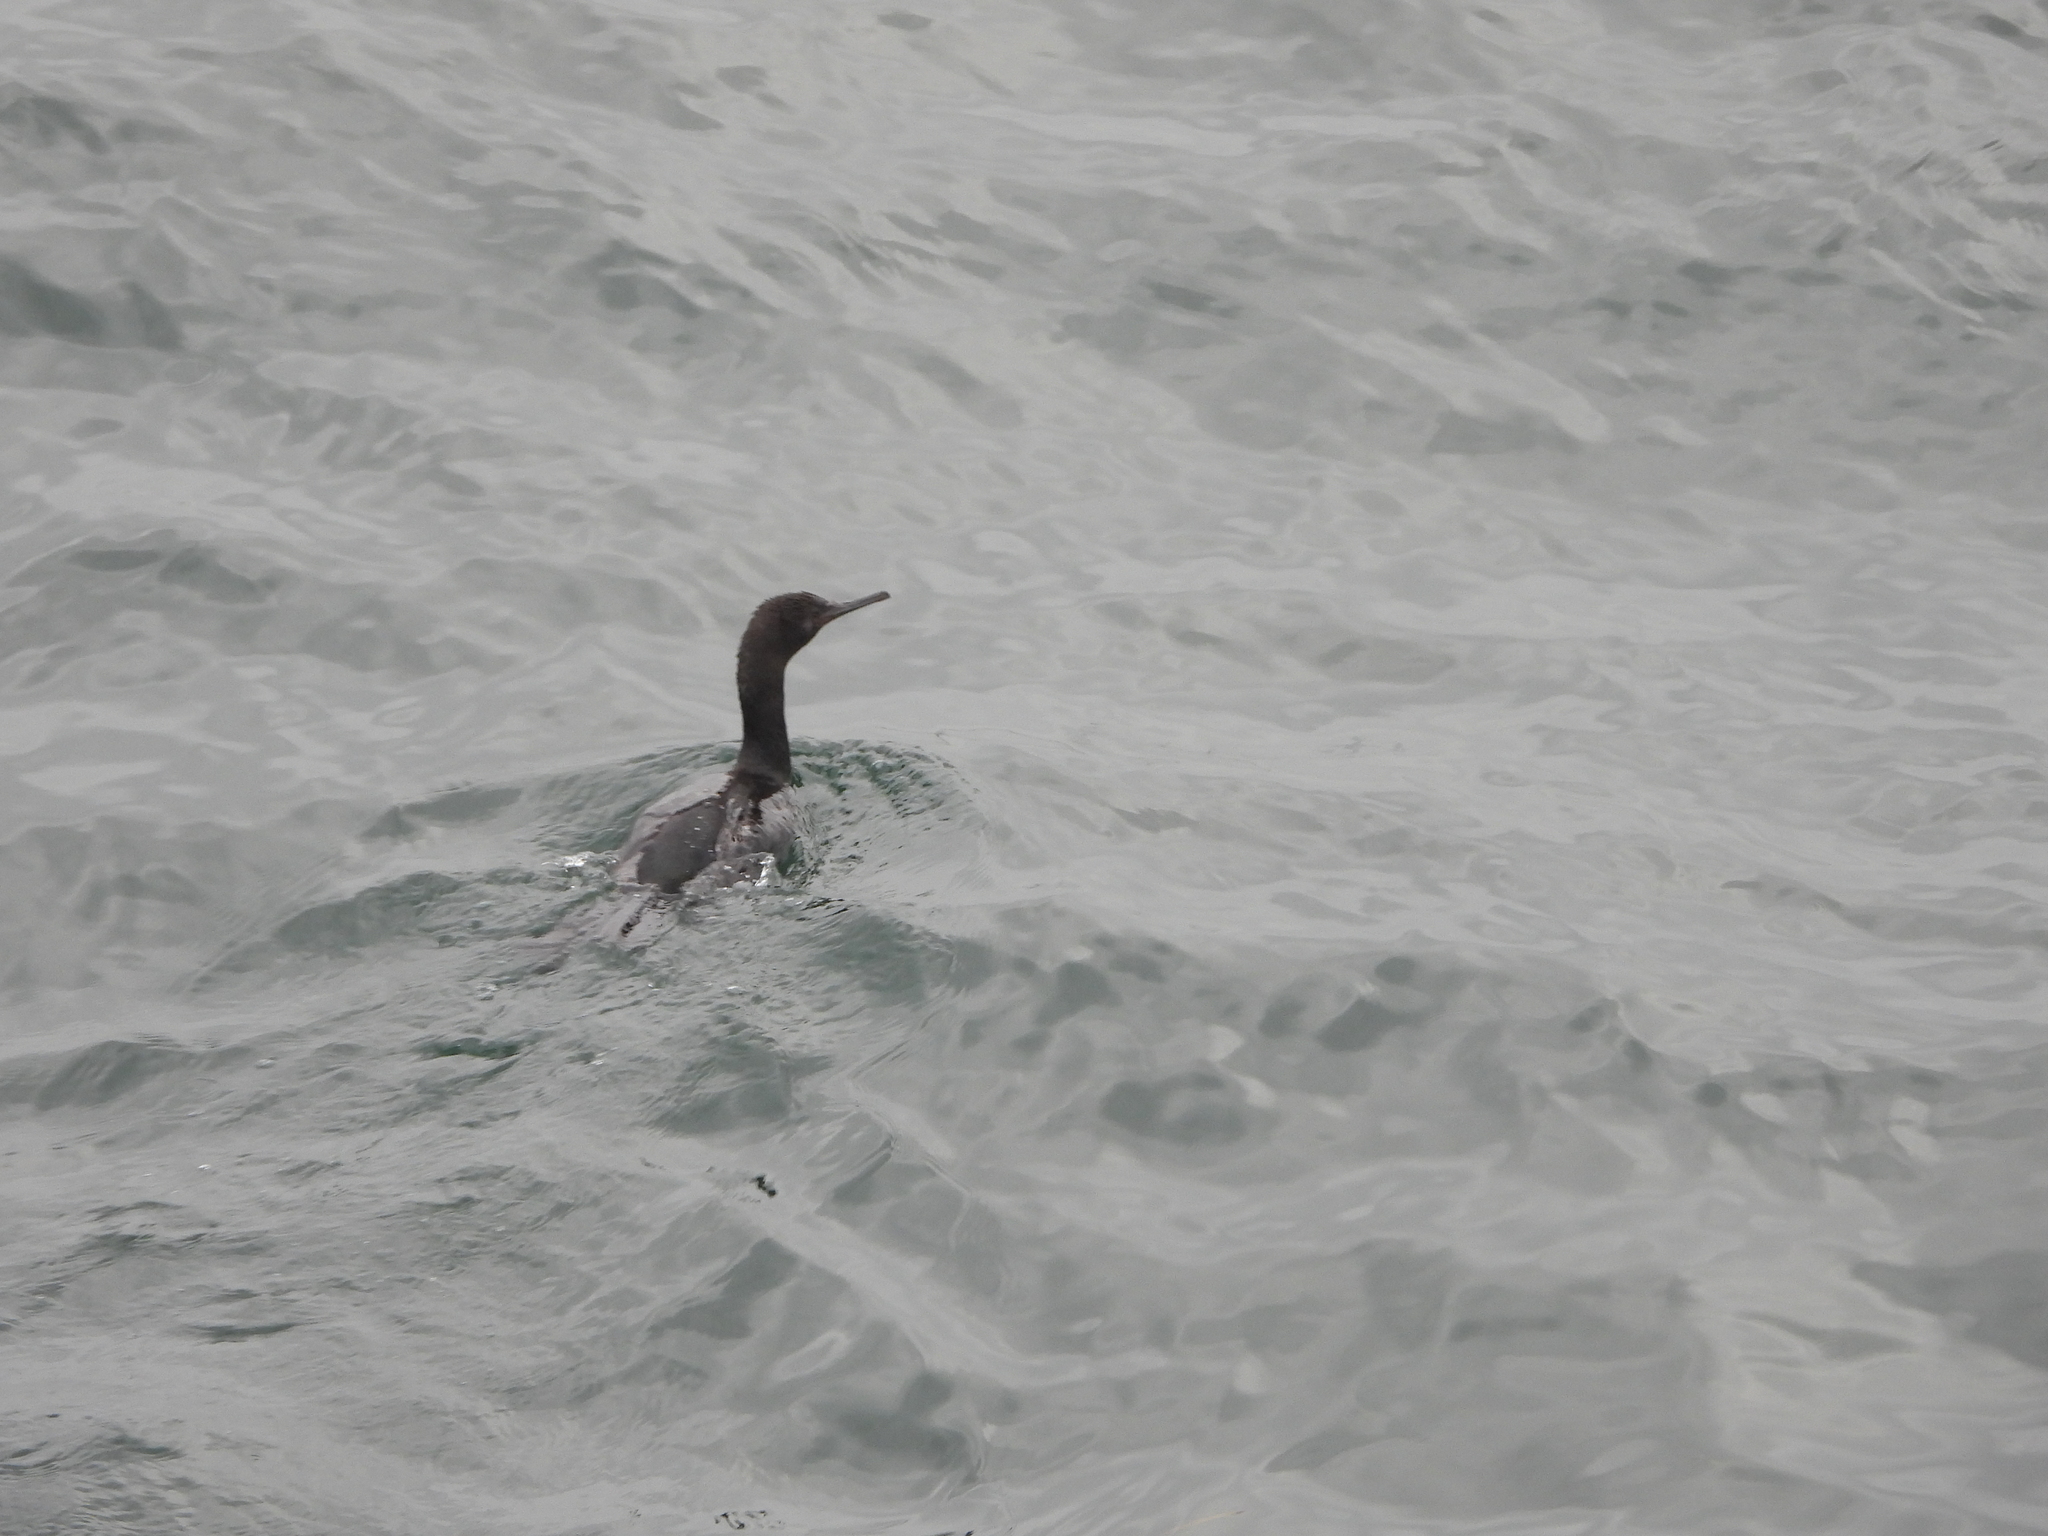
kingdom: Animalia
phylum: Chordata
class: Aves
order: Suliformes
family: Phalacrocoracidae
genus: Phalacrocorax
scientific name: Phalacrocorax pelagicus
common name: Pelagic cormorant
